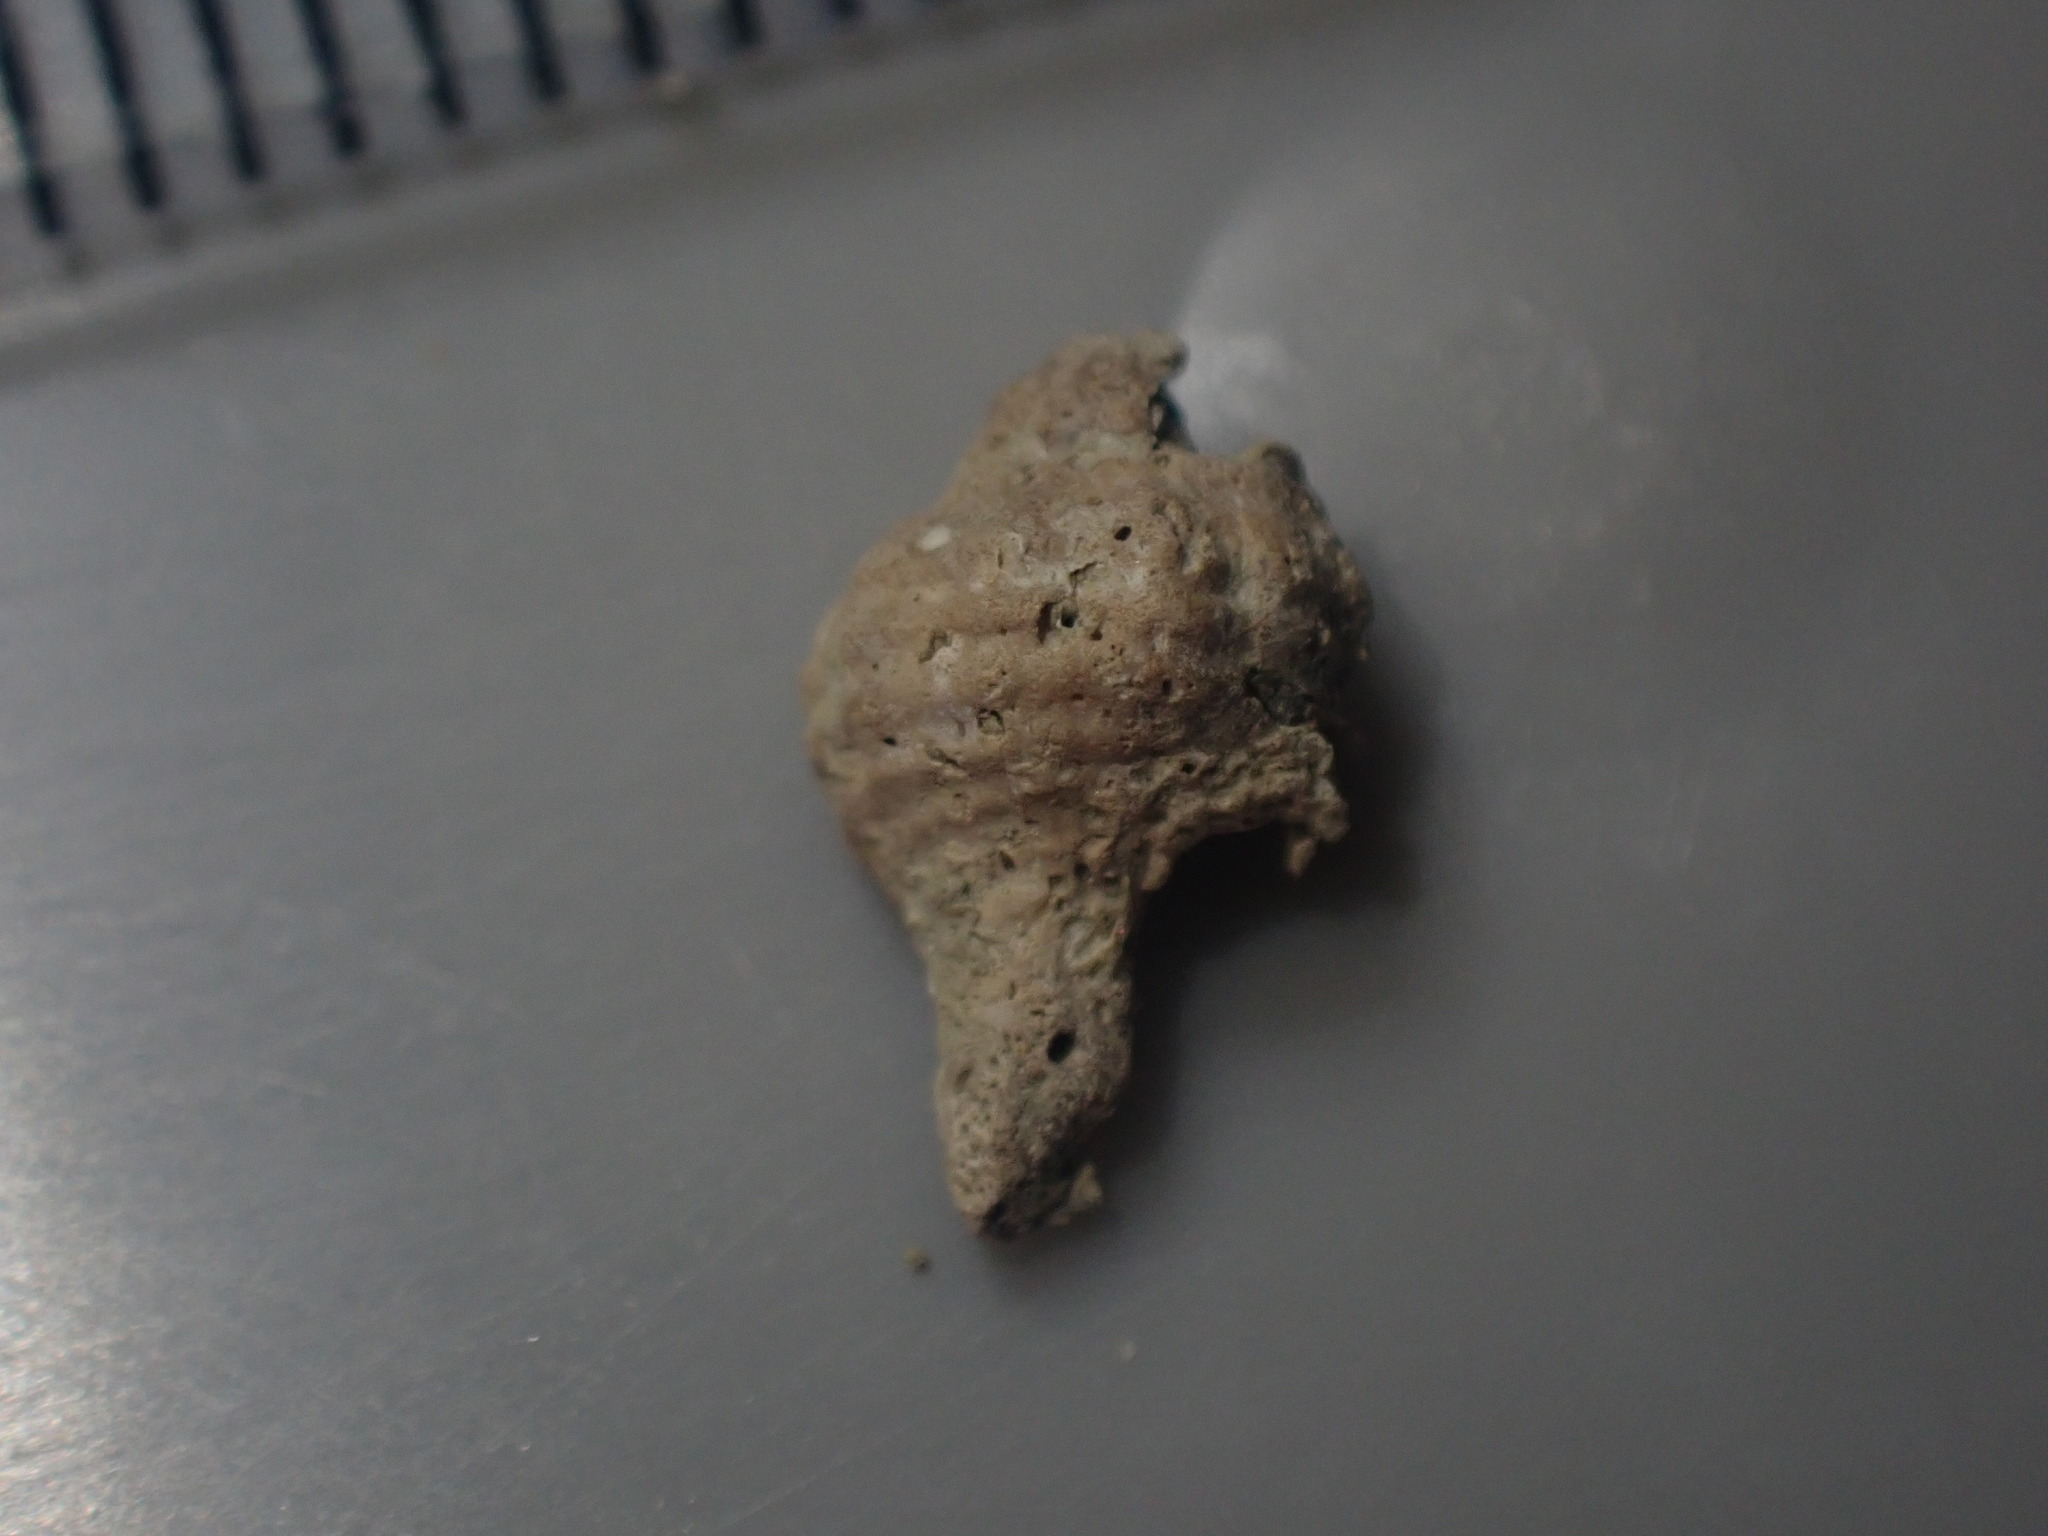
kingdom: Animalia
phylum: Mollusca
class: Gastropoda
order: Neogastropoda
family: Fasciolariidae
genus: Taron
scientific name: Taron dubius
